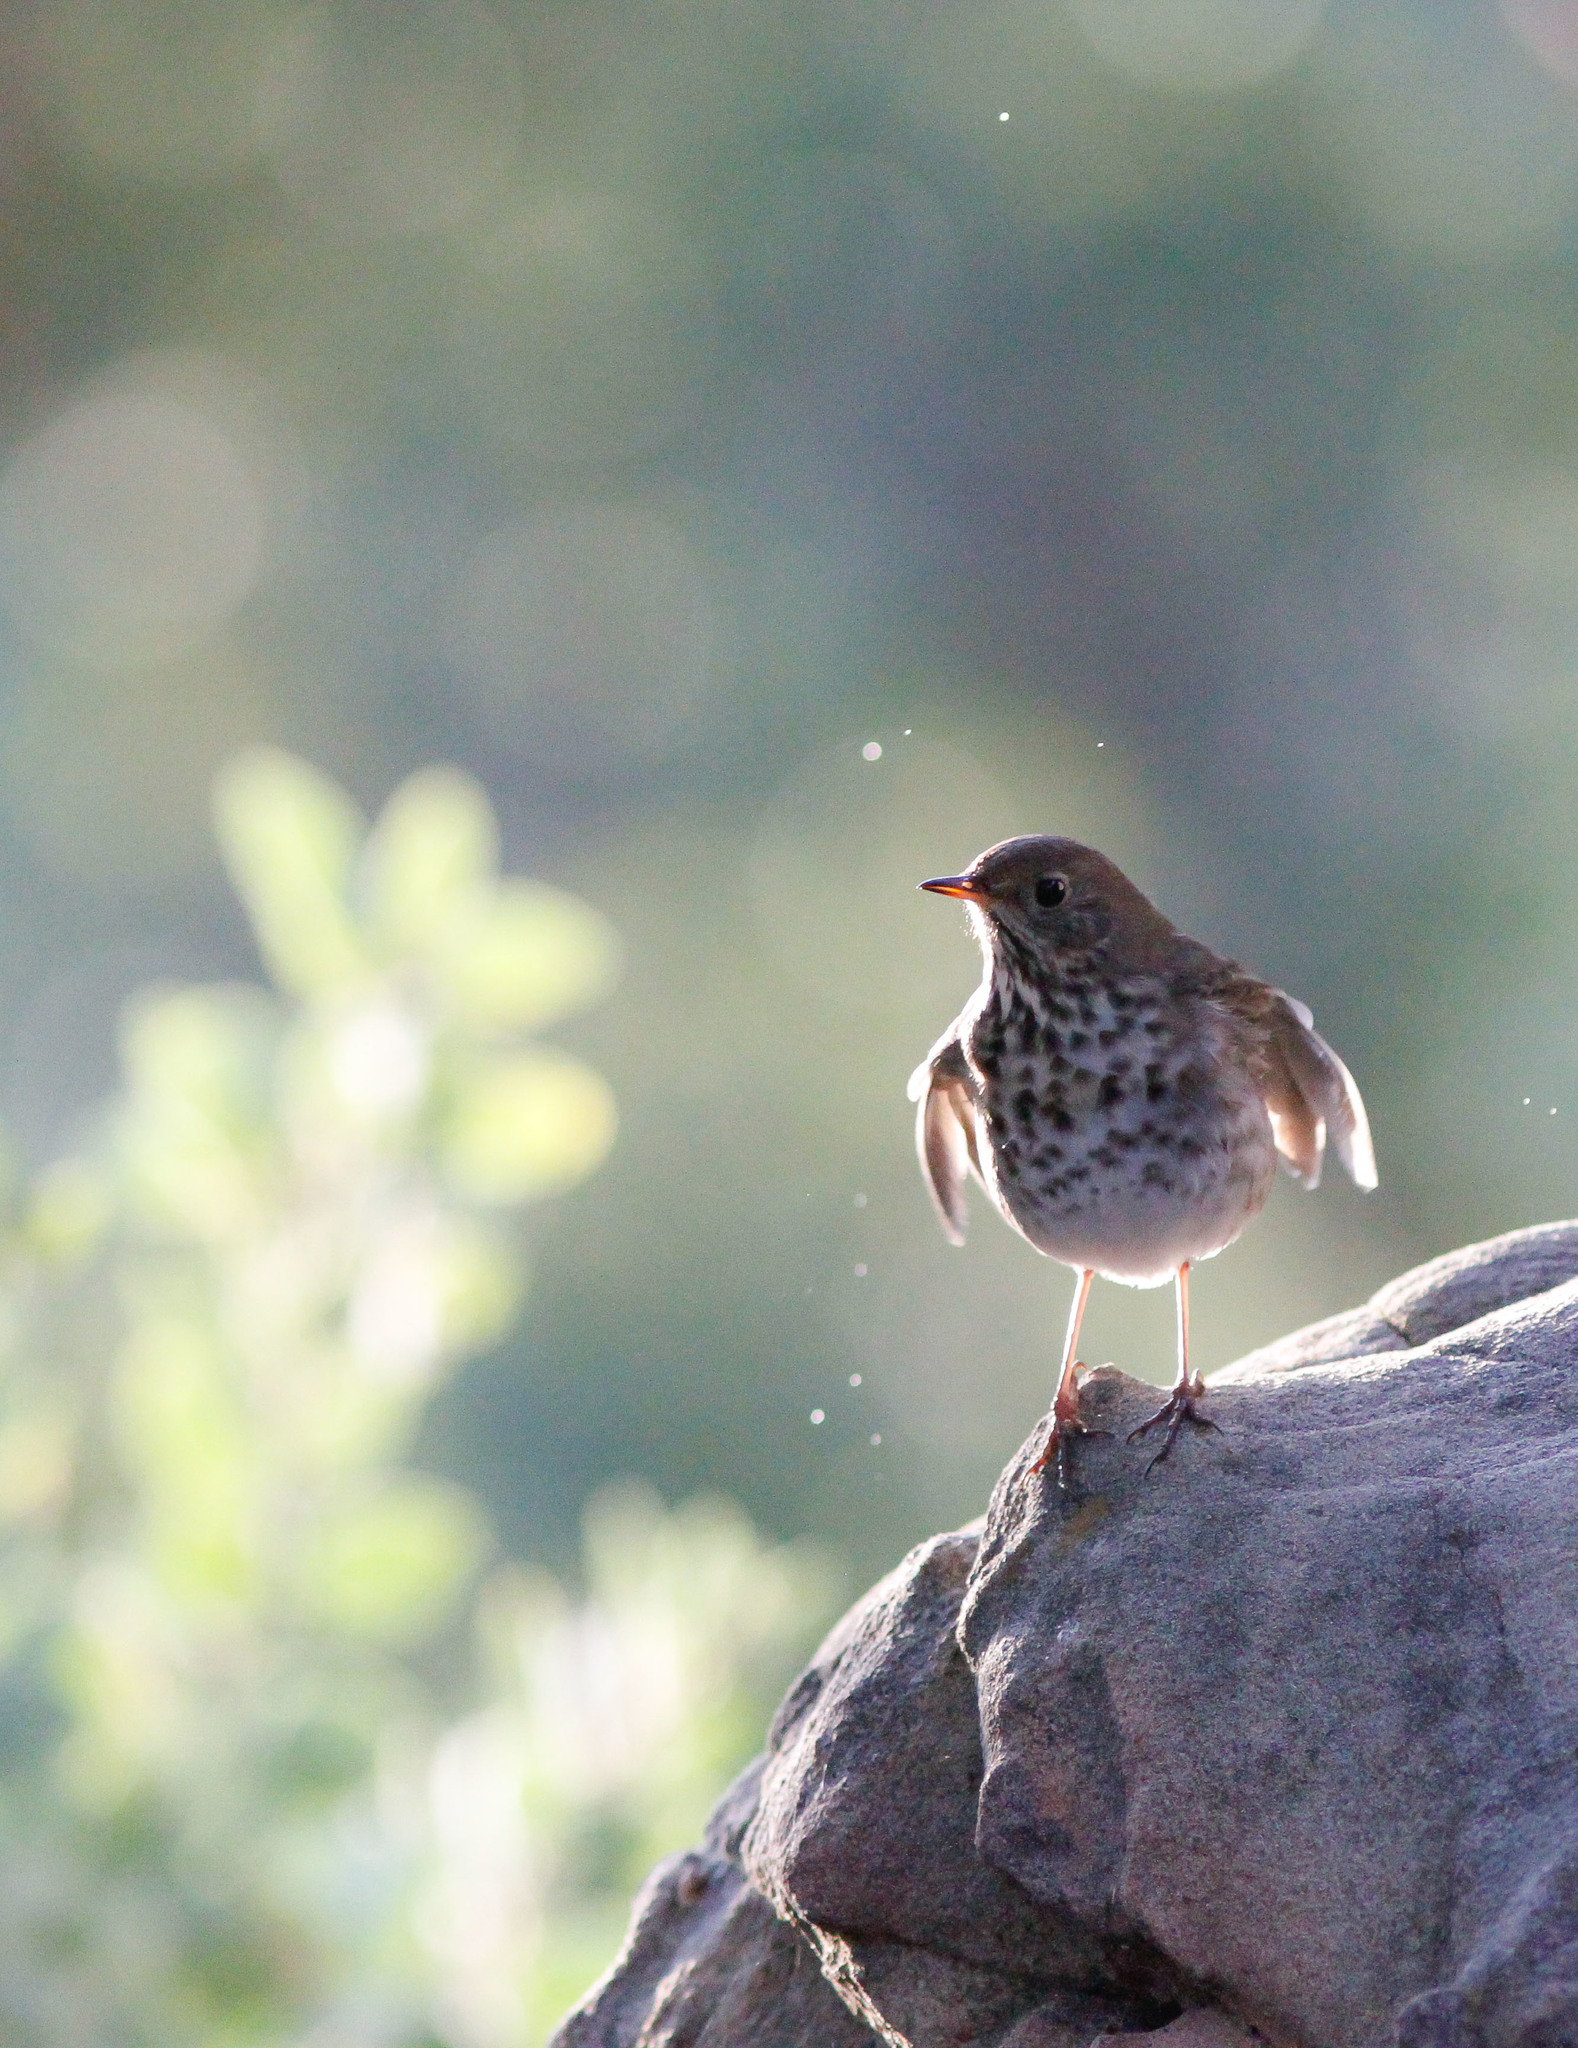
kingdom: Animalia
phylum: Chordata
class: Aves
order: Passeriformes
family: Turdidae
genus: Catharus
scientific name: Catharus guttatus
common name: Hermit thrush
